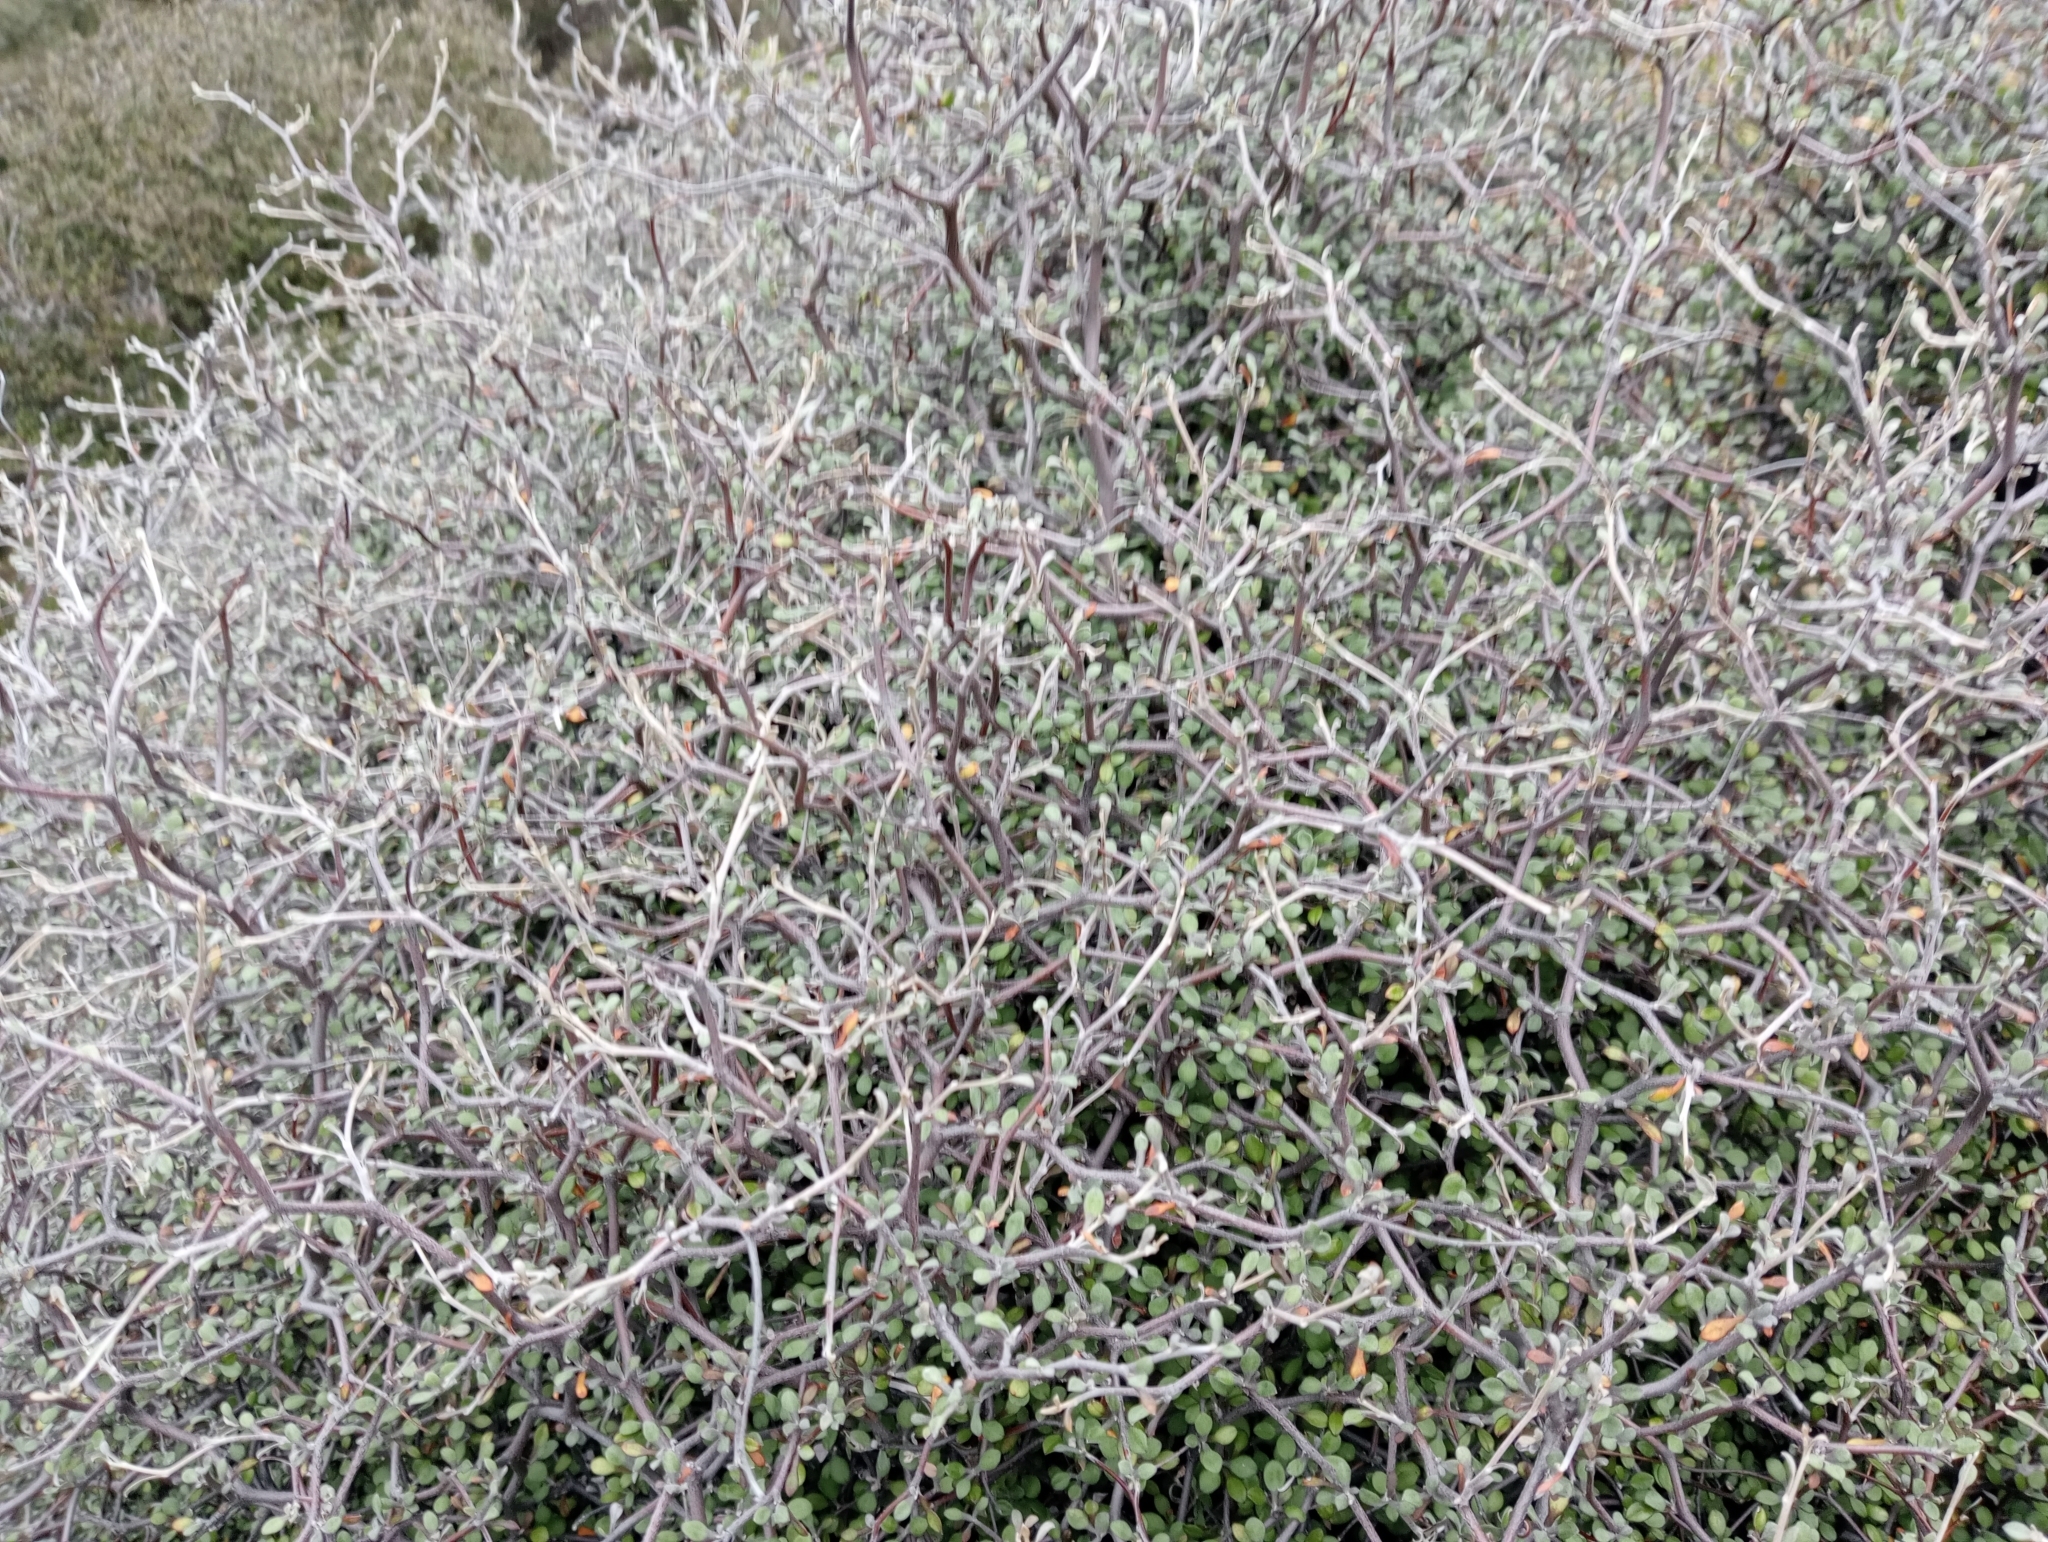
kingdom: Plantae
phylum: Tracheophyta
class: Magnoliopsida
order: Asterales
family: Argophyllaceae
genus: Corokia
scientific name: Corokia cotoneaster
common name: Wire nettingbush
